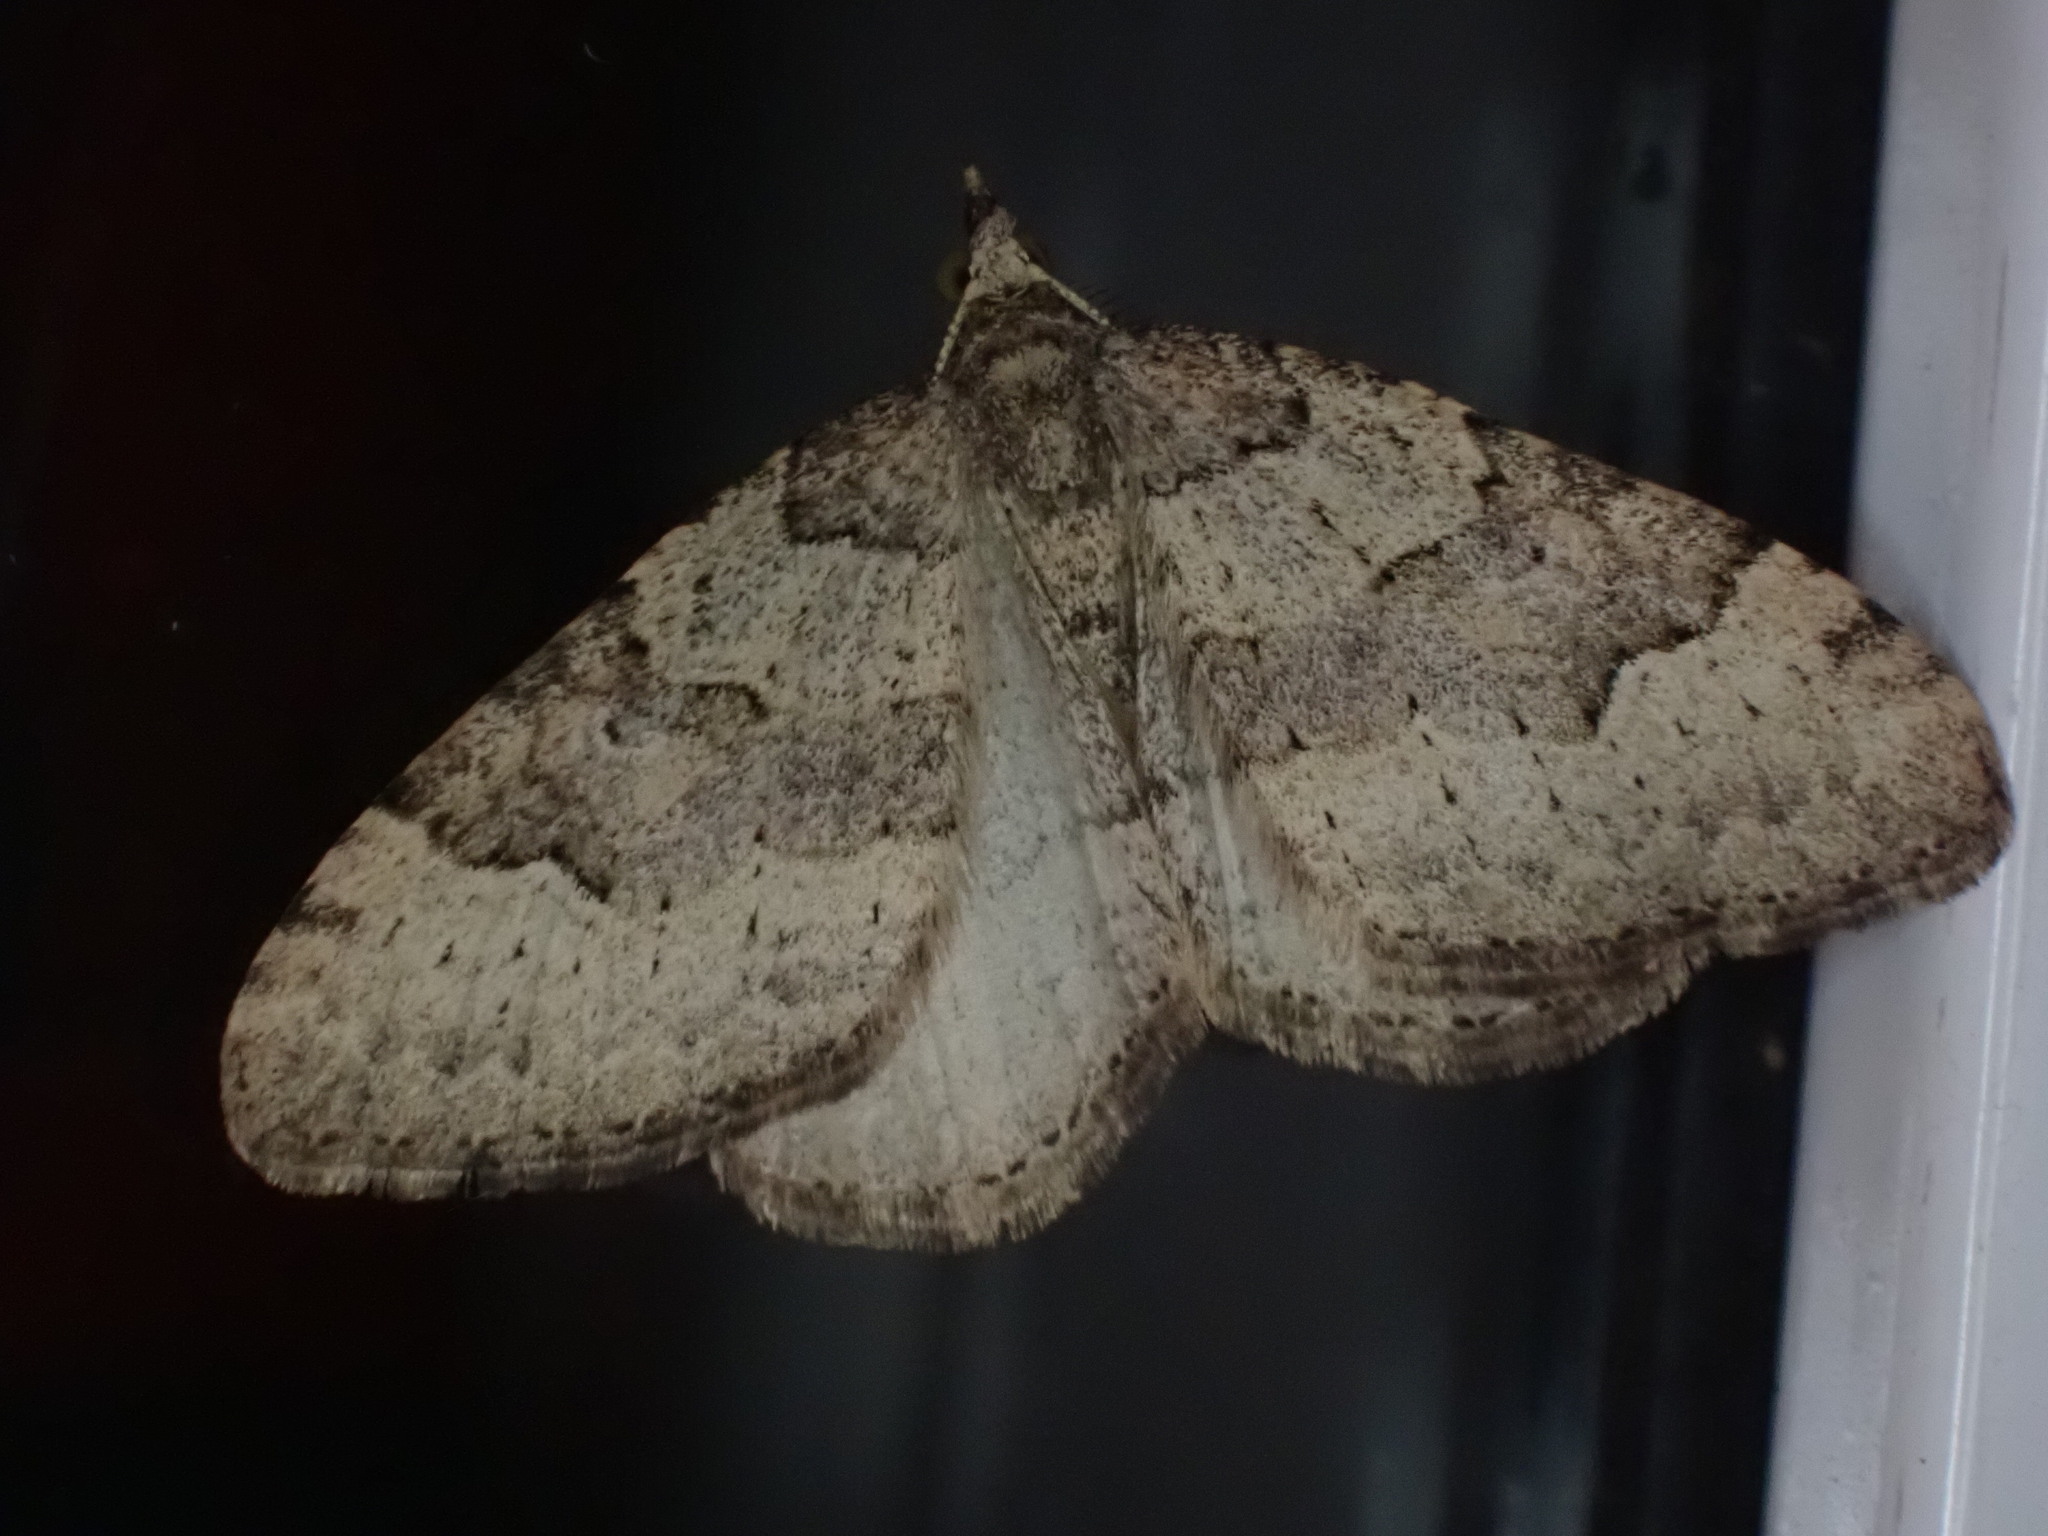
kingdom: Animalia
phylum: Arthropoda
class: Insecta
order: Lepidoptera
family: Geometridae
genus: Epyaxa
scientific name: Epyaxa rosearia
